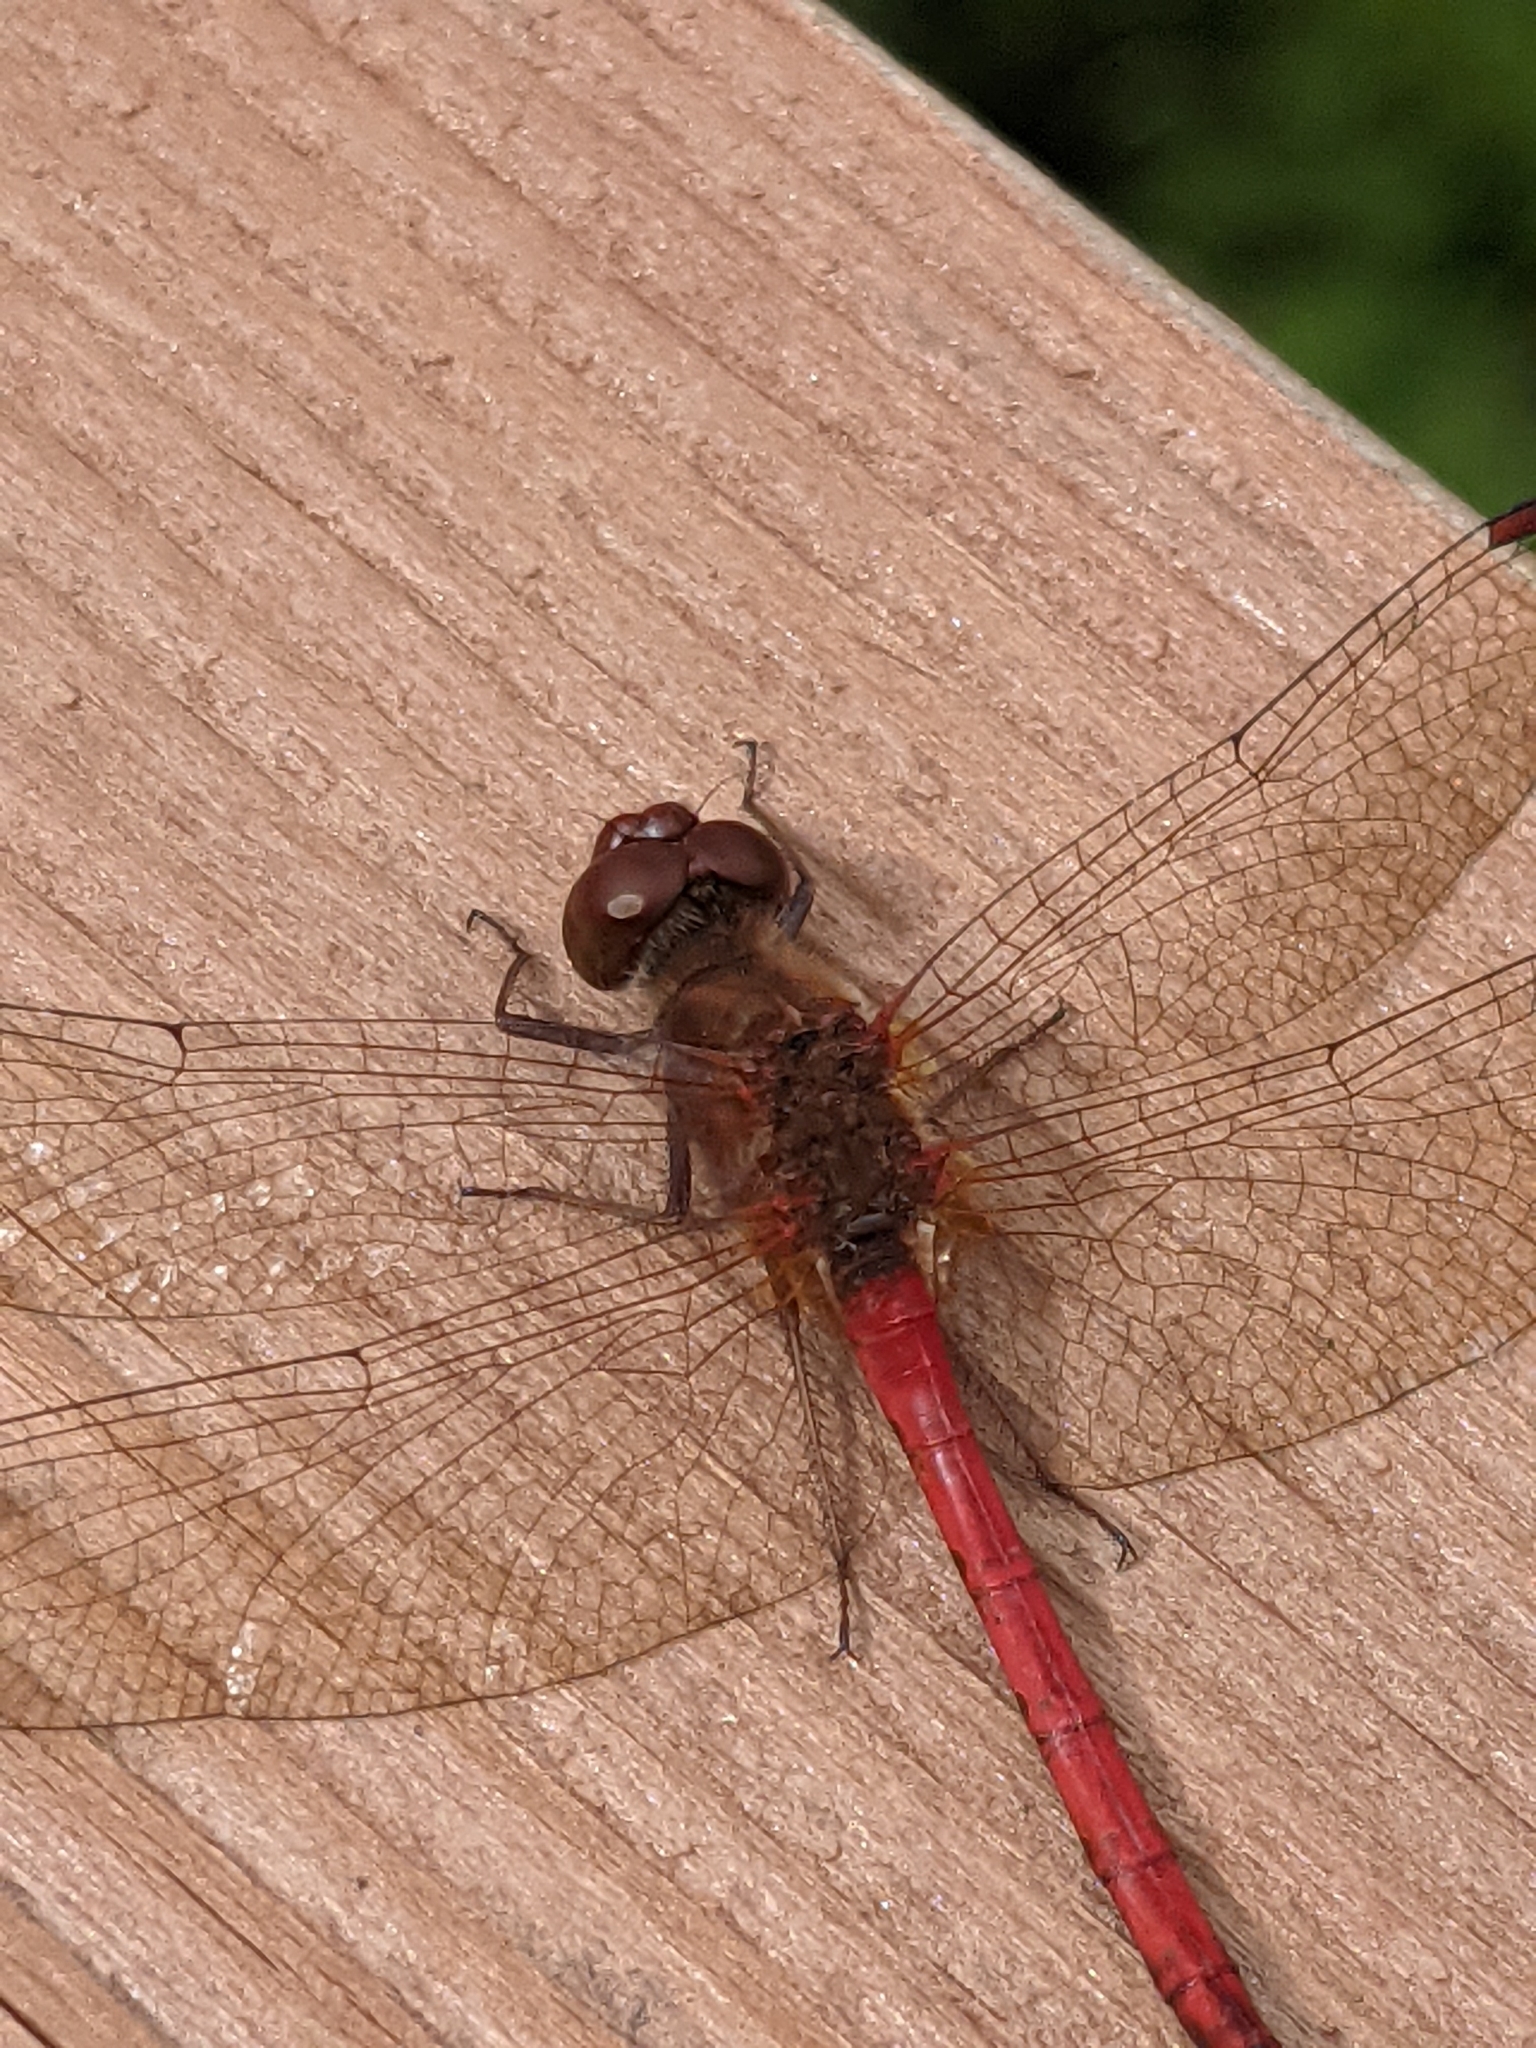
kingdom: Animalia
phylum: Arthropoda
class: Insecta
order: Odonata
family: Libellulidae
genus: Sympetrum
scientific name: Sympetrum vicinum
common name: Autumn meadowhawk
